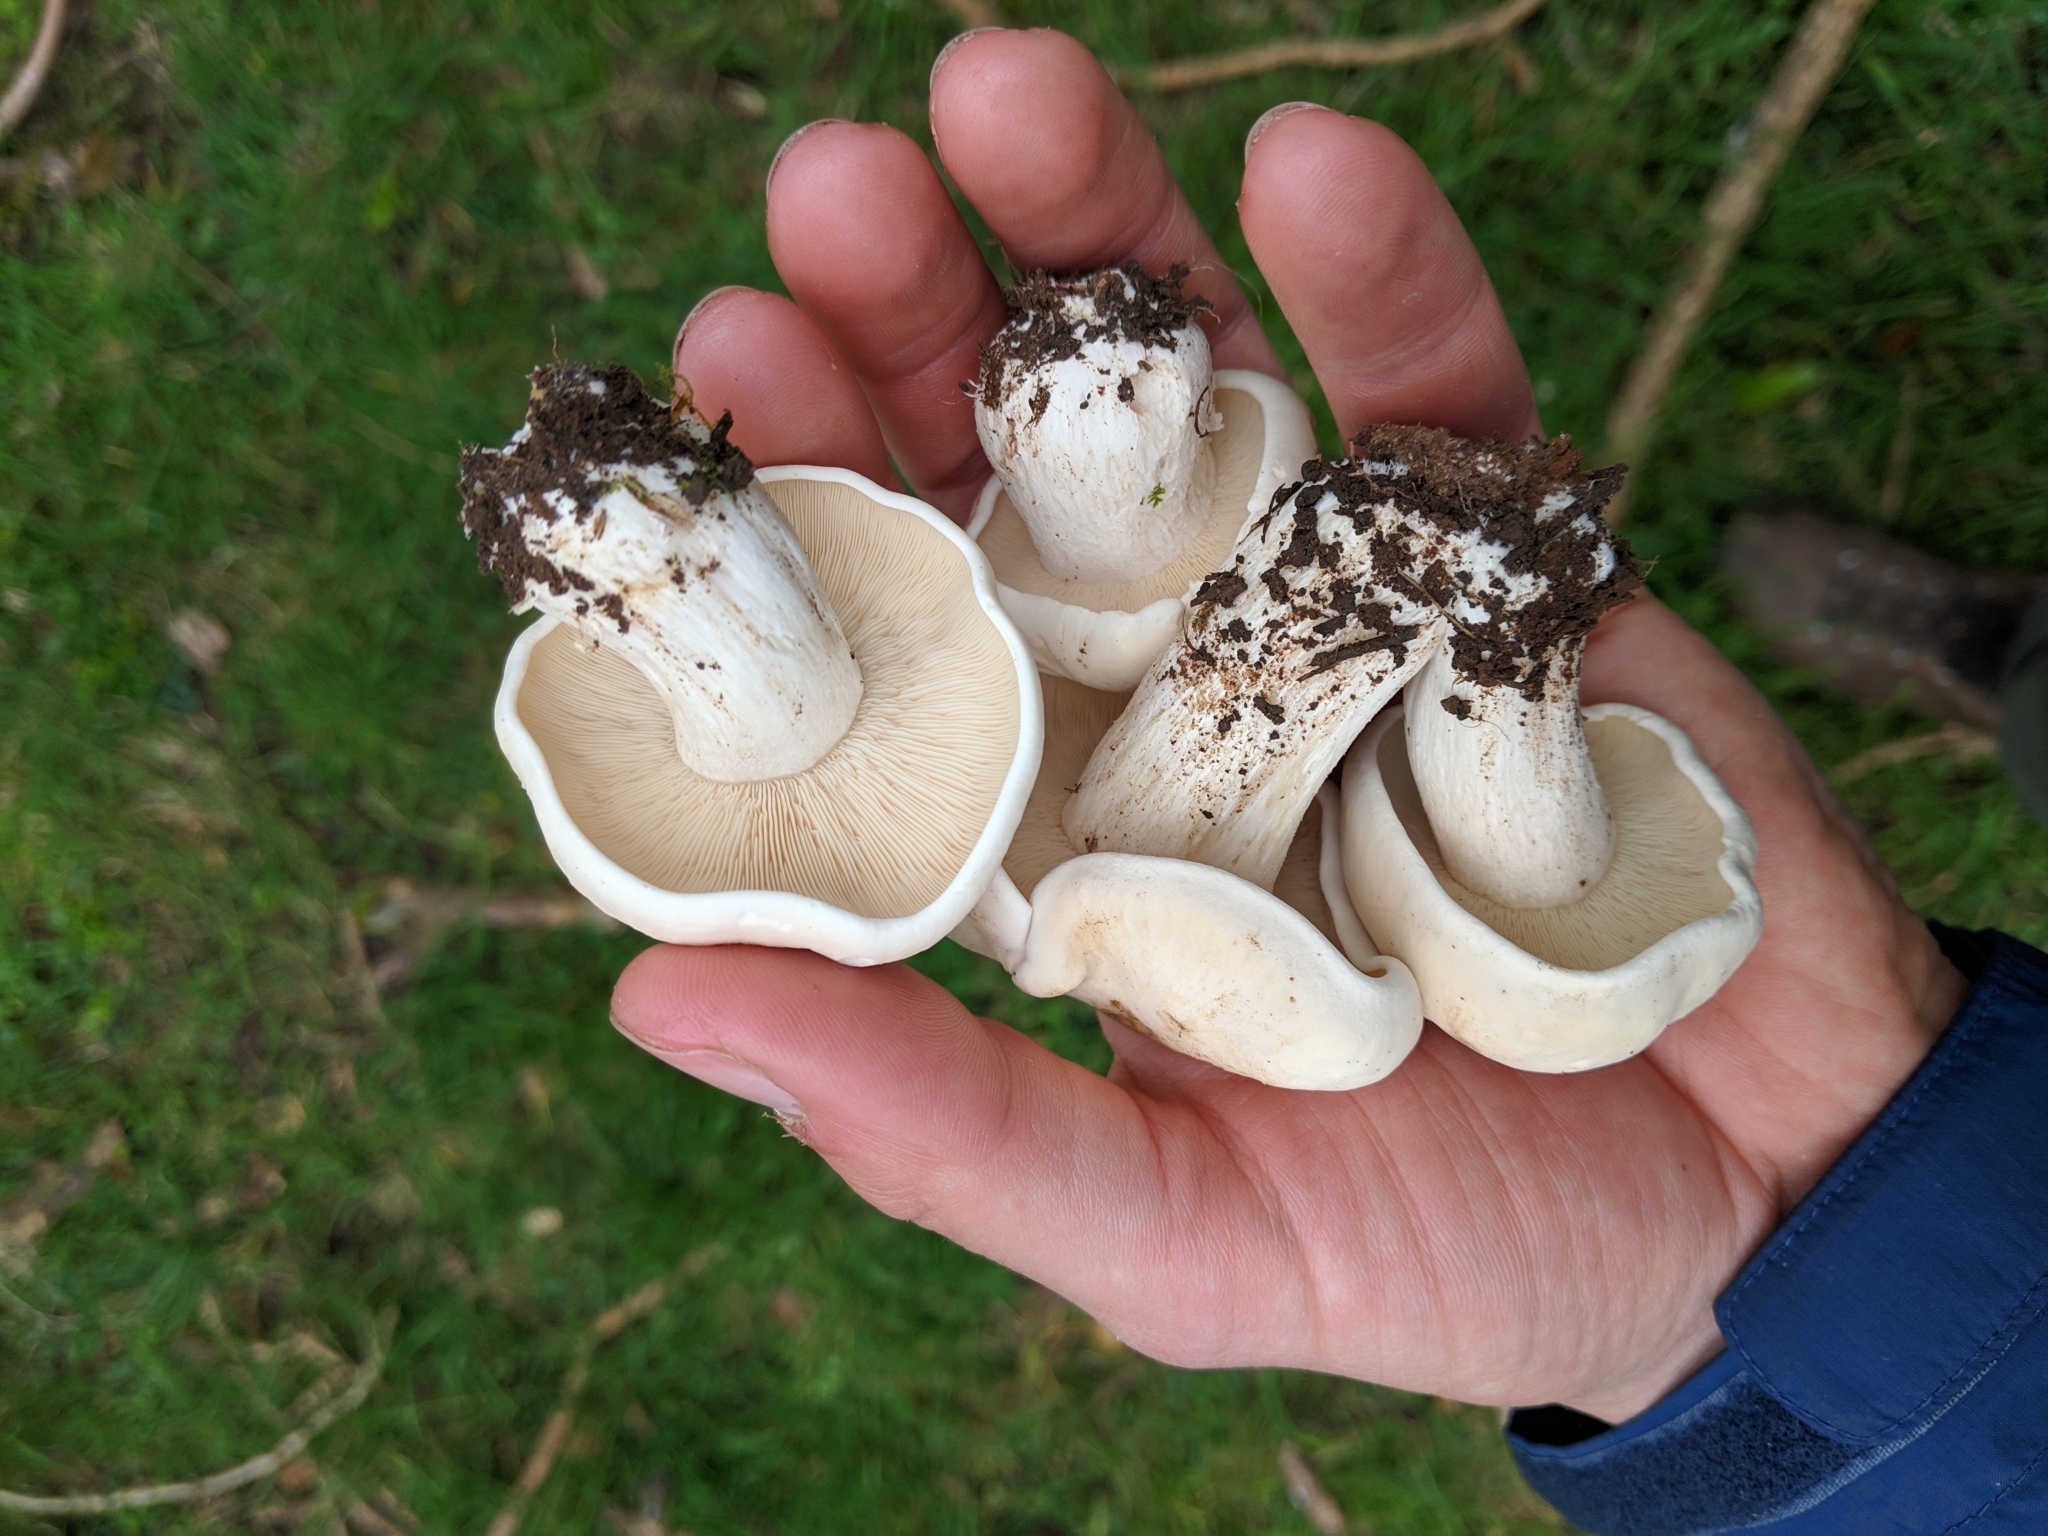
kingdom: Fungi
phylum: Basidiomycota
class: Agaricomycetes
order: Agaricales
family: Lyophyllaceae
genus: Calocybe
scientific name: Calocybe gambosa
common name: St. george's mushroom
